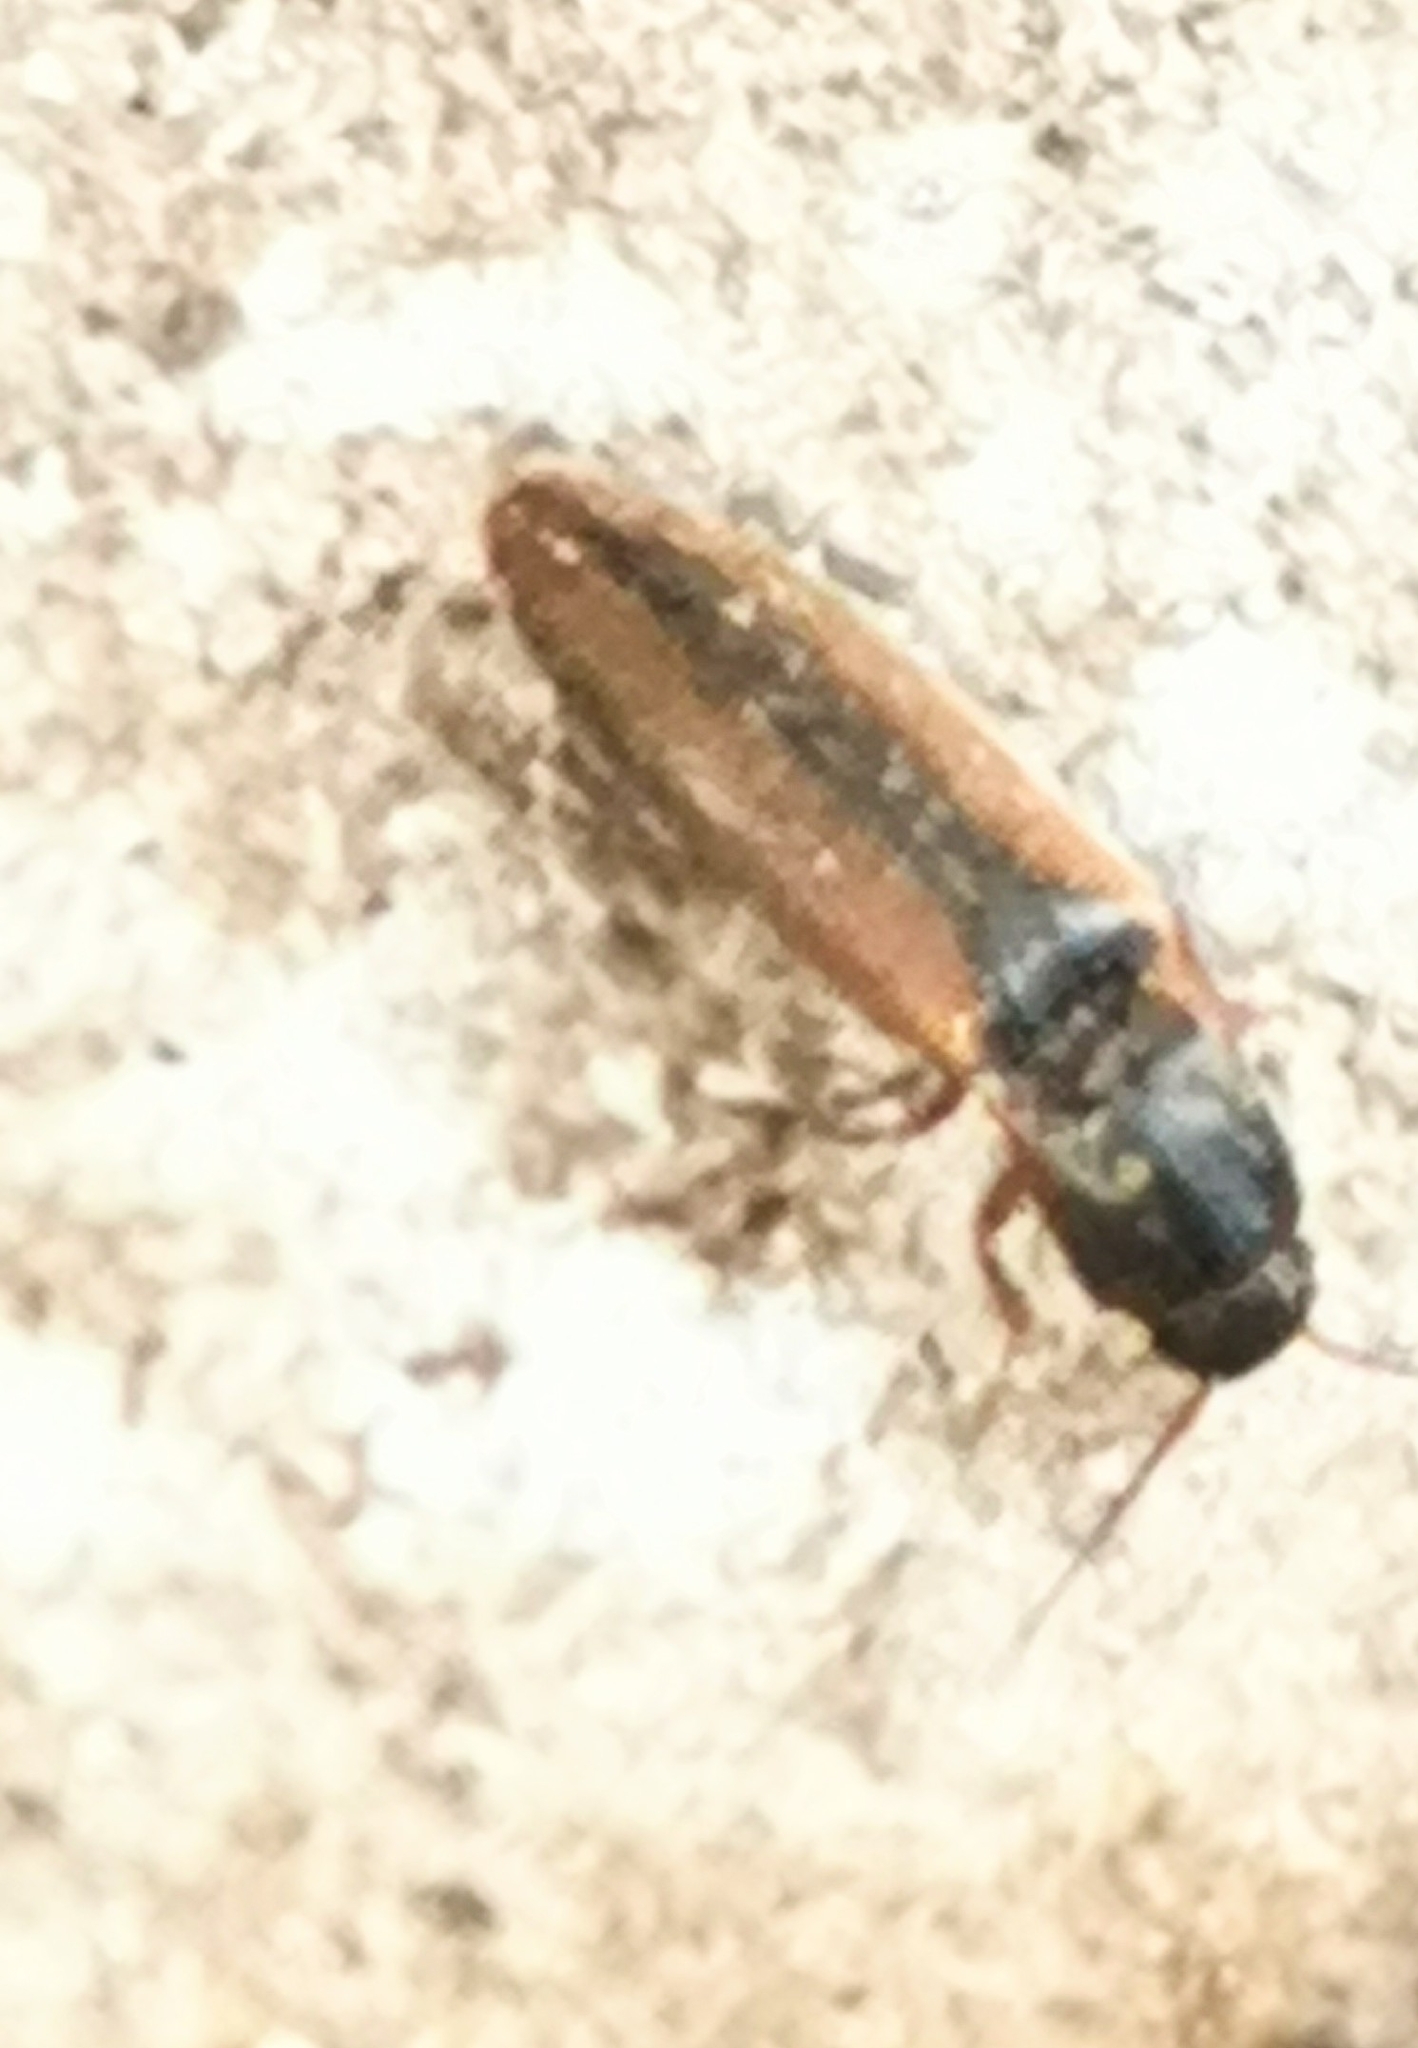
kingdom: Animalia
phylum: Arthropoda
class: Insecta
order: Coleoptera
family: Elateridae
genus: Dalopius
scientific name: Dalopius marginatus
